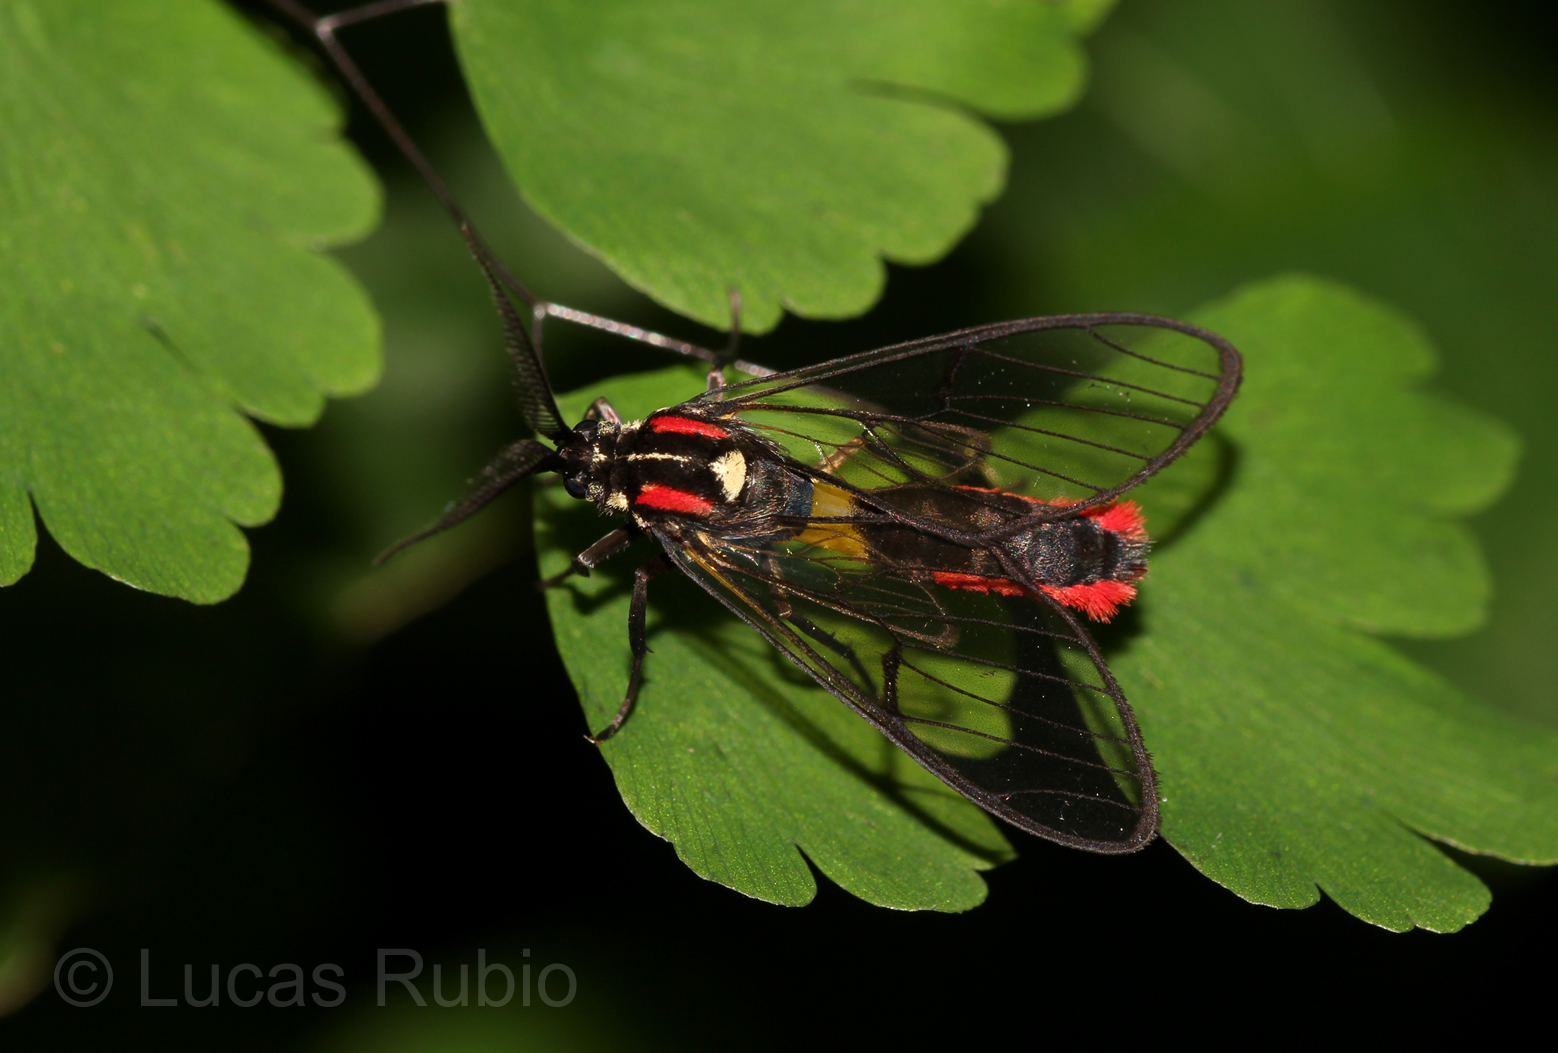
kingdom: Animalia
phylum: Arthropoda
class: Insecta
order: Lepidoptera
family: Erebidae
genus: Argyroeides
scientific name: Argyroeides braco
